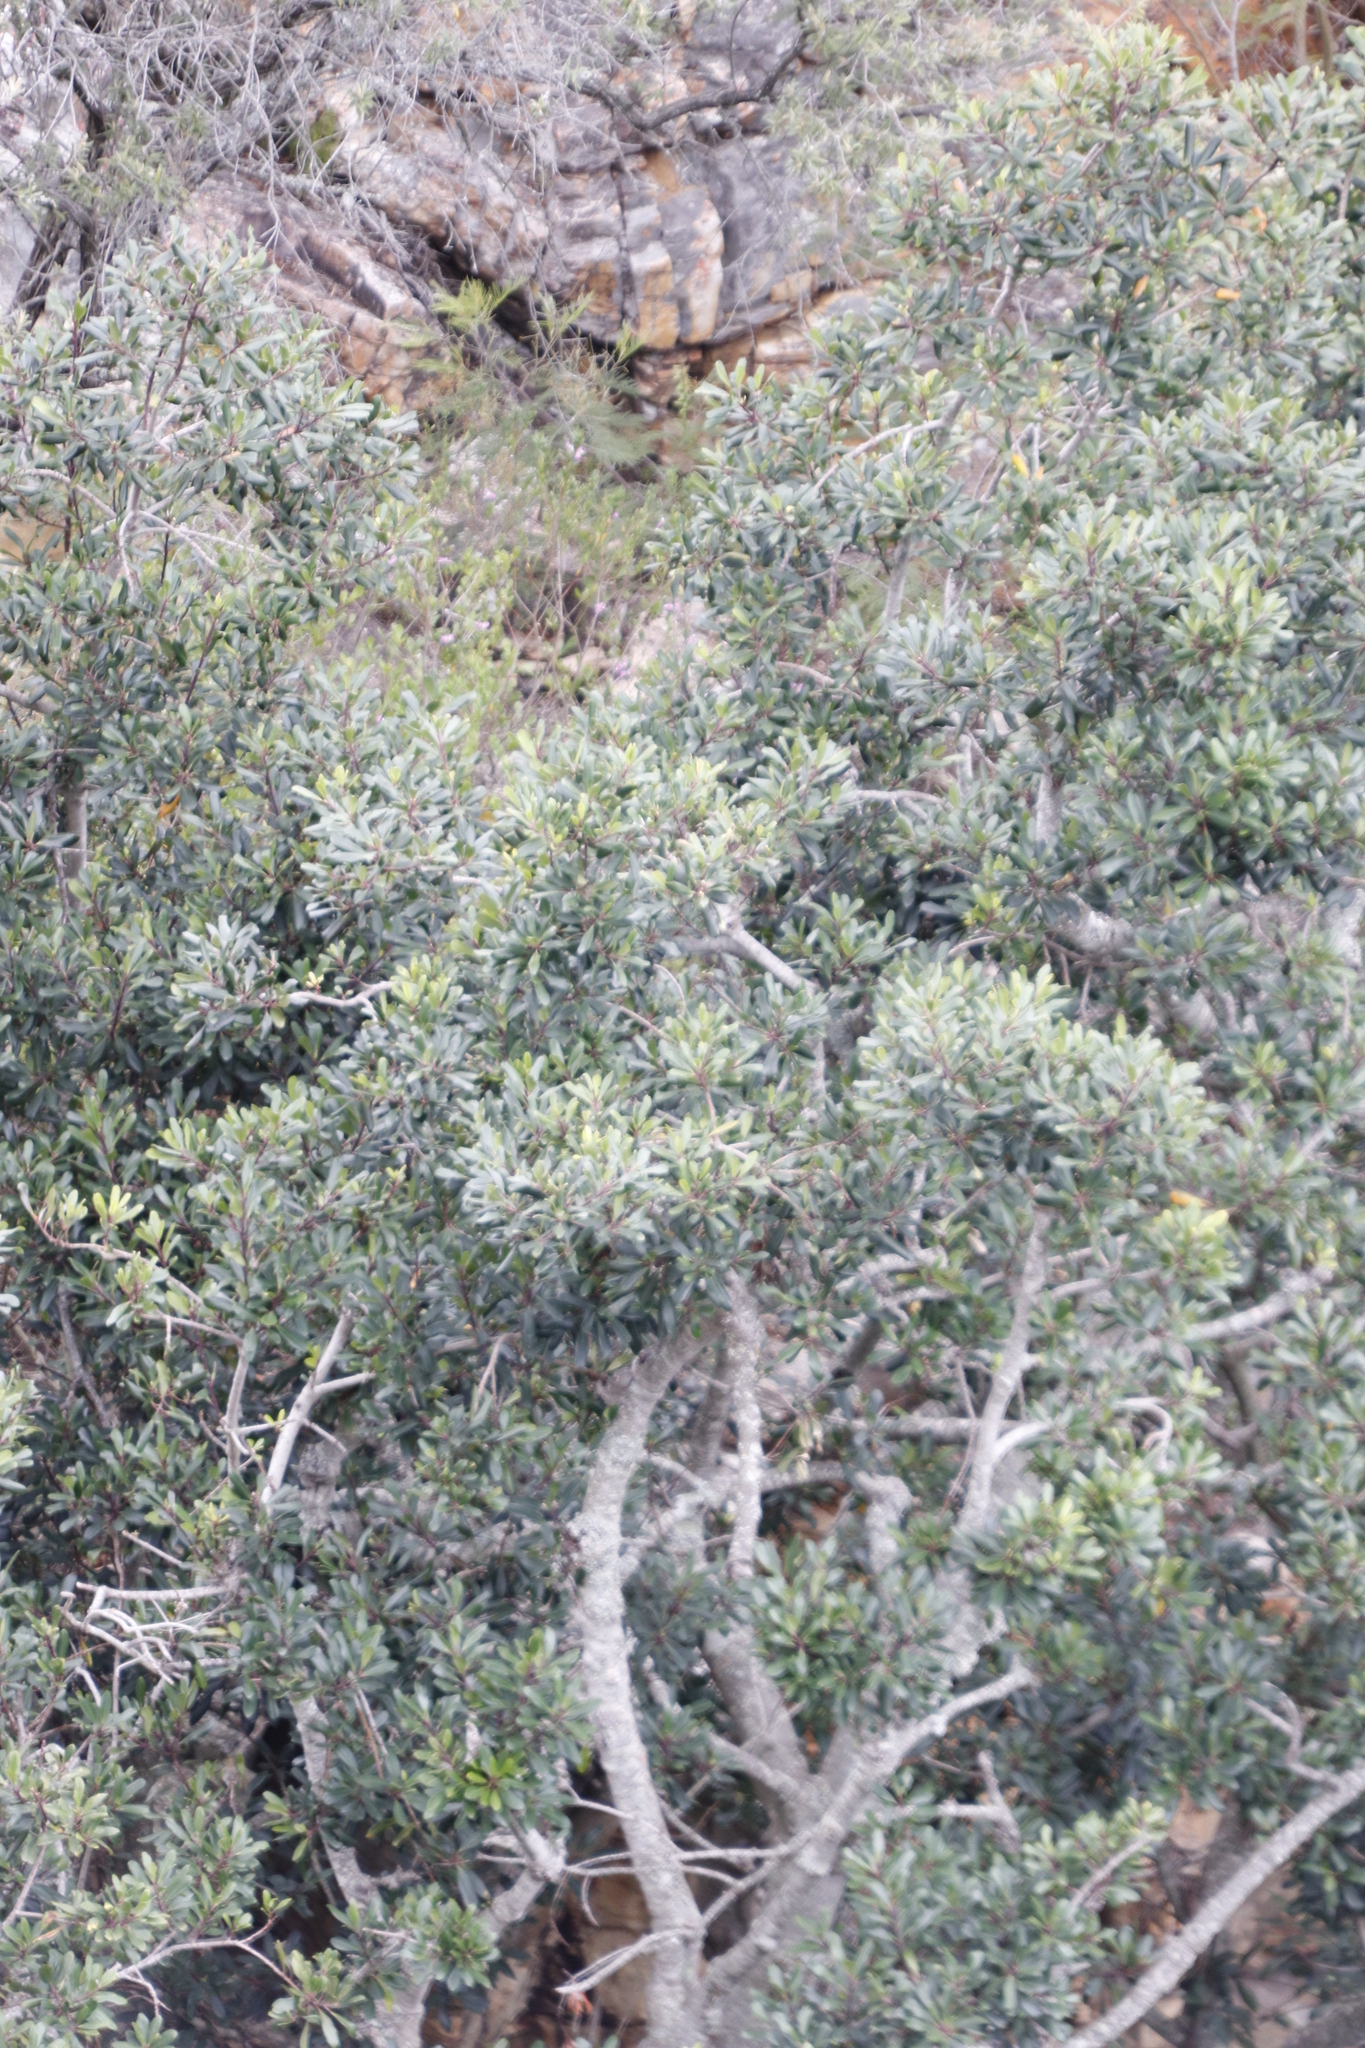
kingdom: Plantae
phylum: Tracheophyta
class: Magnoliopsida
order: Ericales
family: Primulaceae
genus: Myrsine
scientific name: Myrsine melanophloeos
